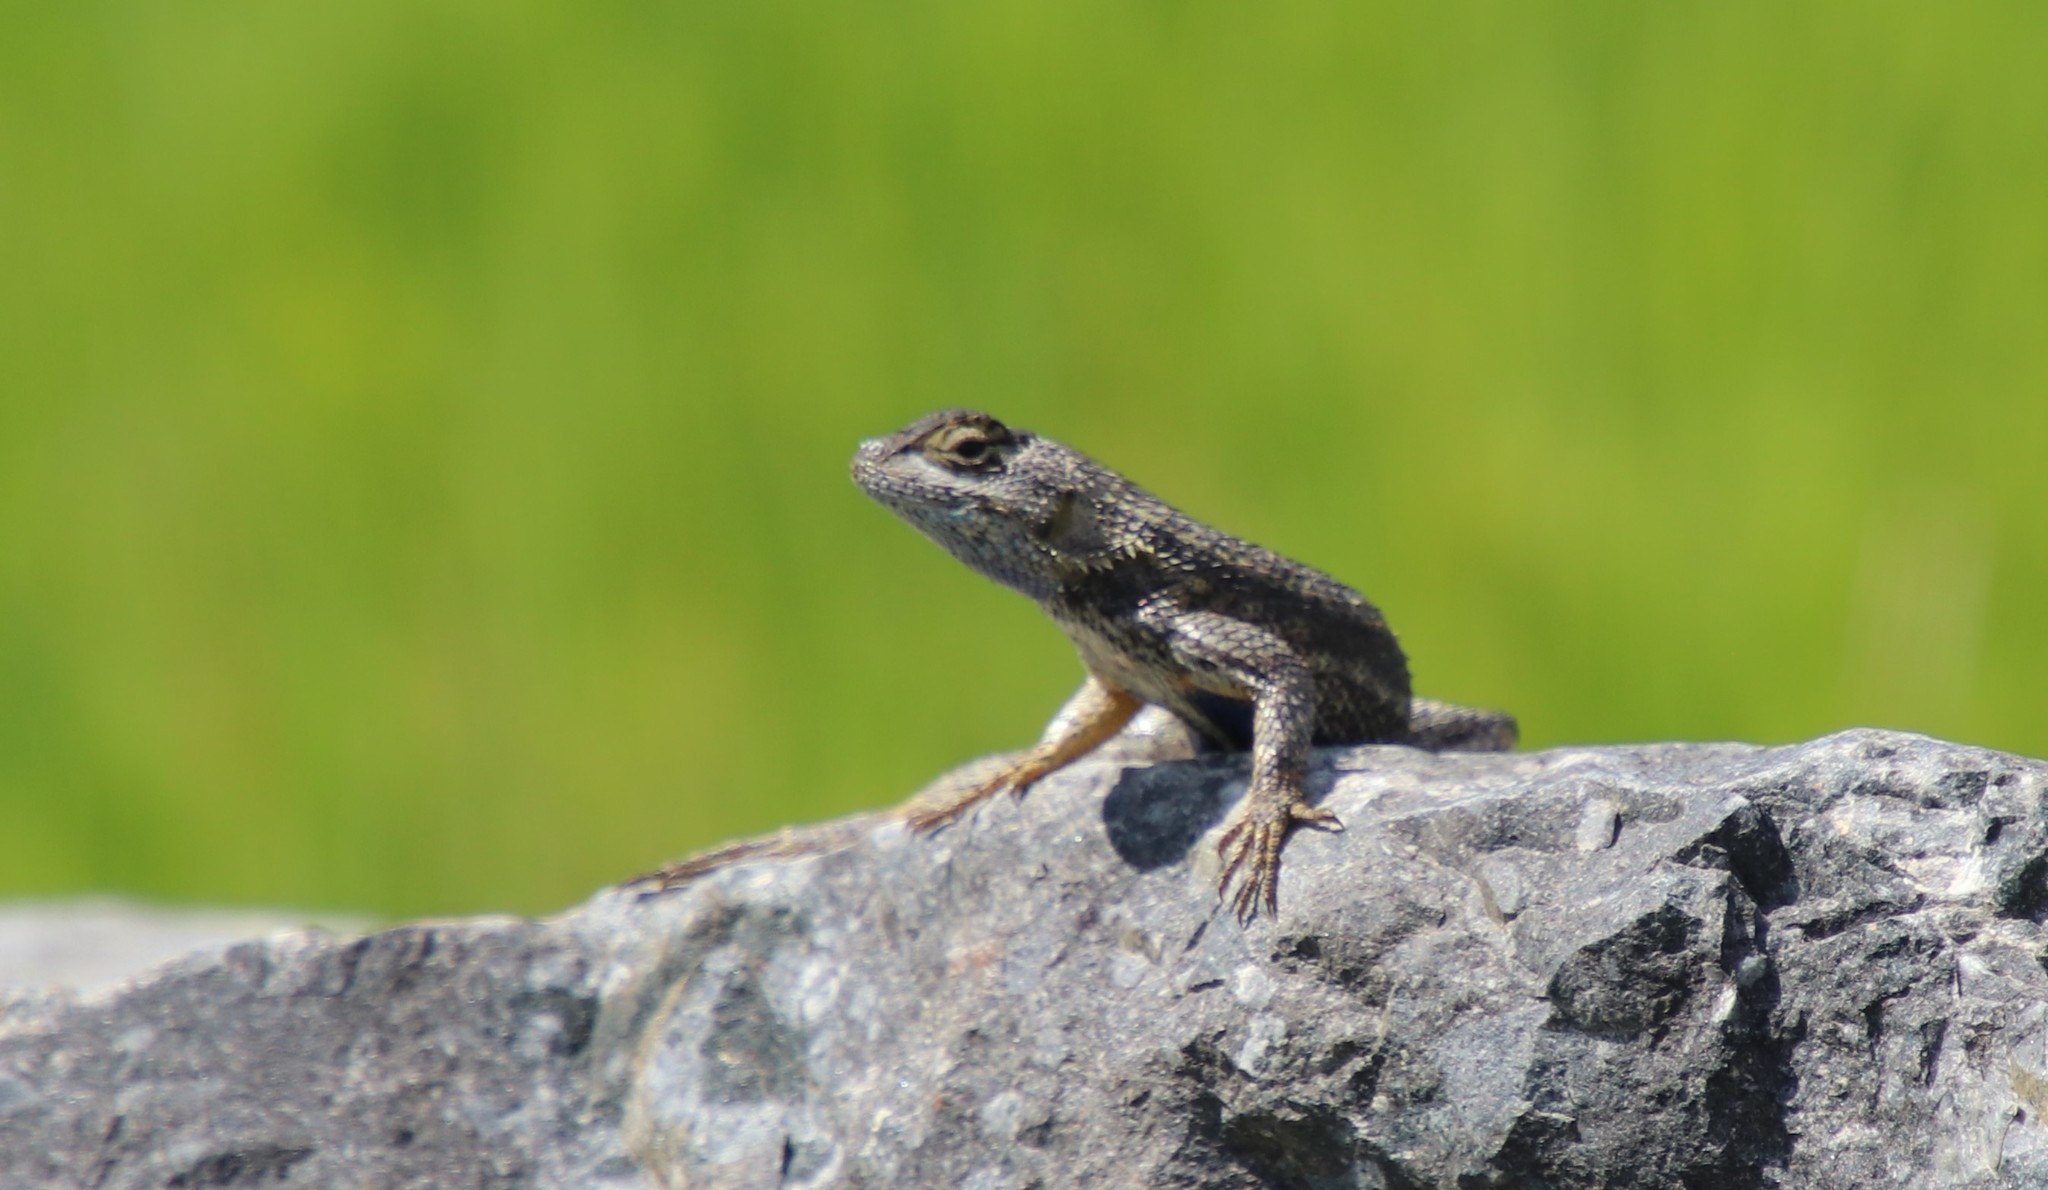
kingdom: Animalia
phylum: Chordata
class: Squamata
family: Phrynosomatidae
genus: Sceloporus
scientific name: Sceloporus occidentalis
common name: Western fence lizard
